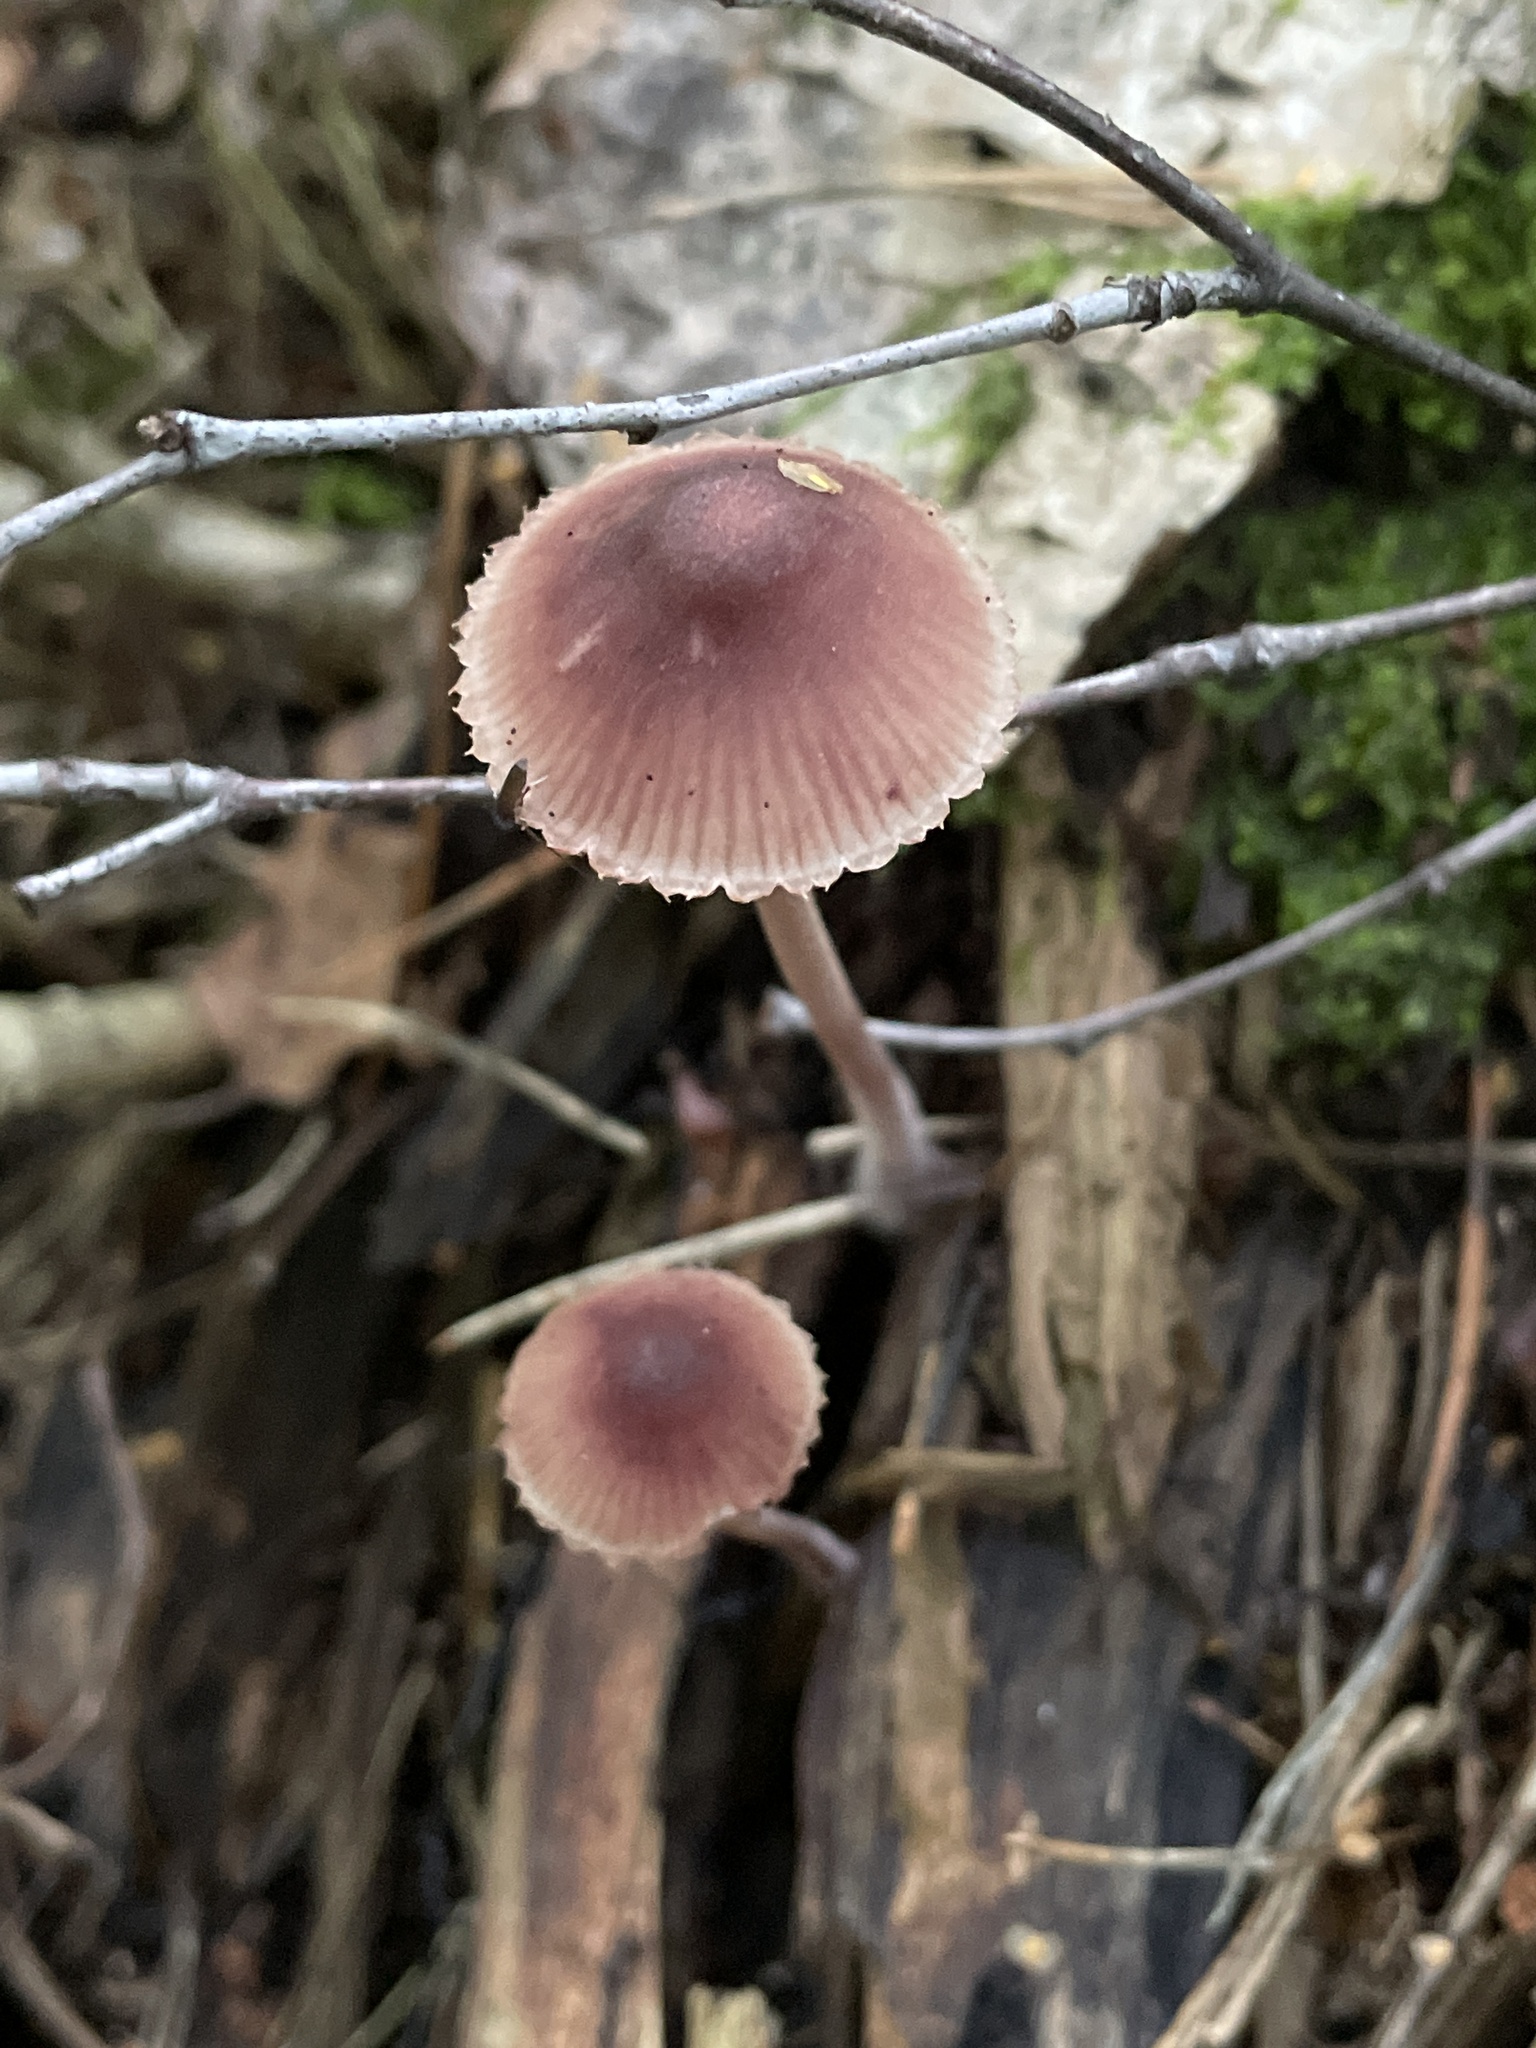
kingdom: Fungi
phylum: Basidiomycota
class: Agaricomycetes
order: Agaricales
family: Mycenaceae
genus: Mycena
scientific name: Mycena haematopus
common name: Burgundydrop bonnet
